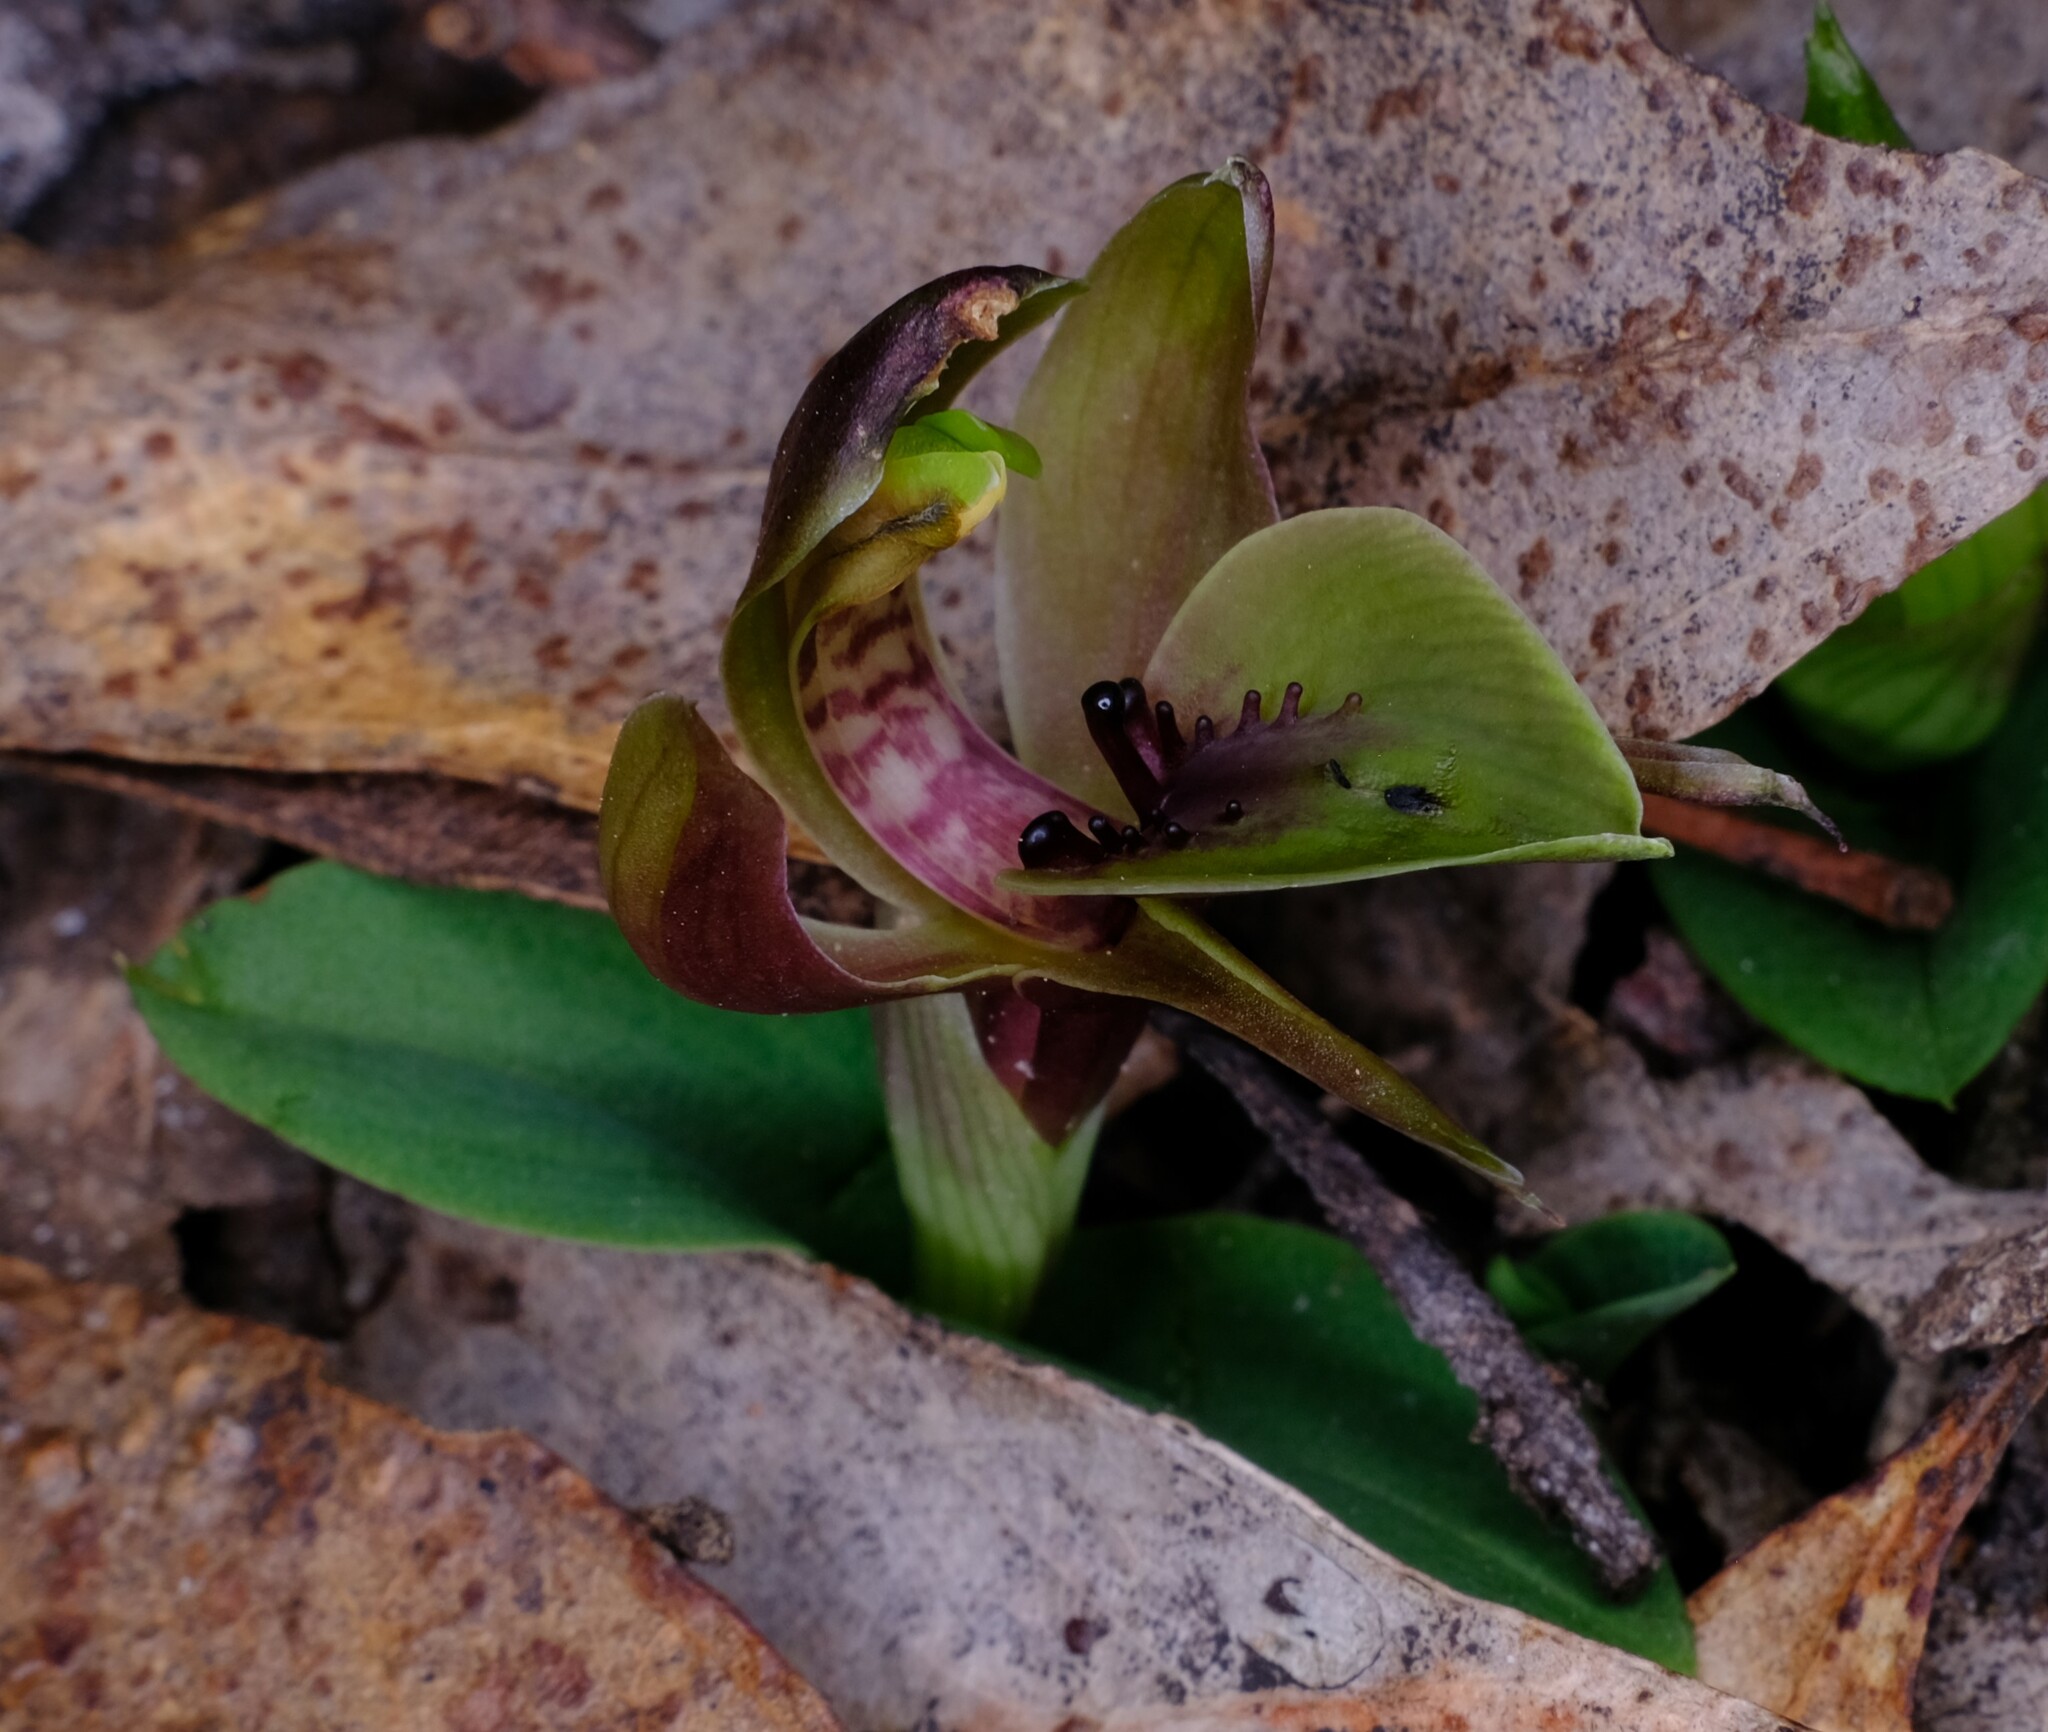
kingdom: Plantae
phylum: Tracheophyta
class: Liliopsida
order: Asparagales
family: Orchidaceae
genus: Chiloglottis
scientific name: Chiloglottis valida
